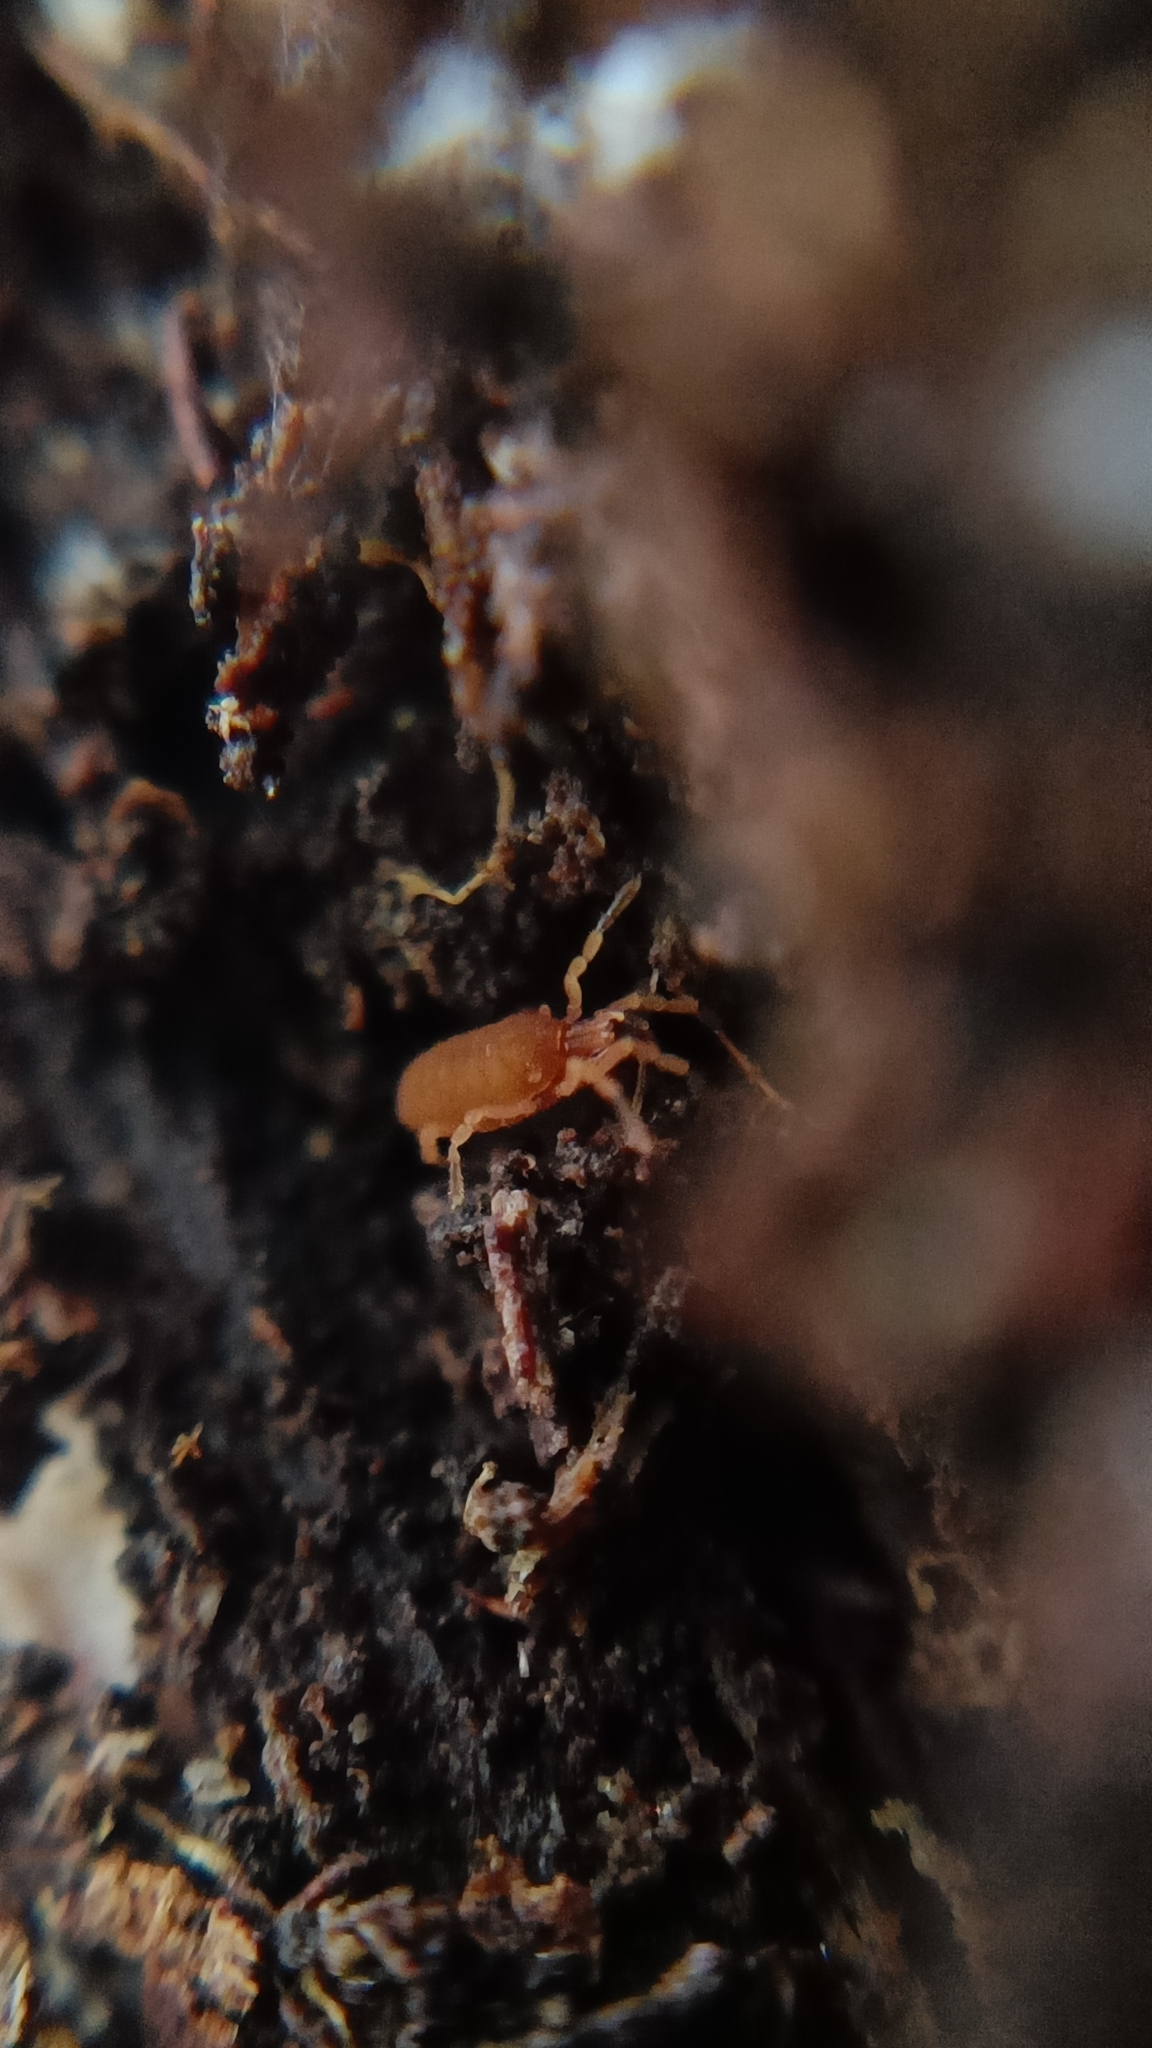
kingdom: Animalia
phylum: Arthropoda
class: Arachnida
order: Opiliones
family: Sironidae
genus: Siro
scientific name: Siro rubens
